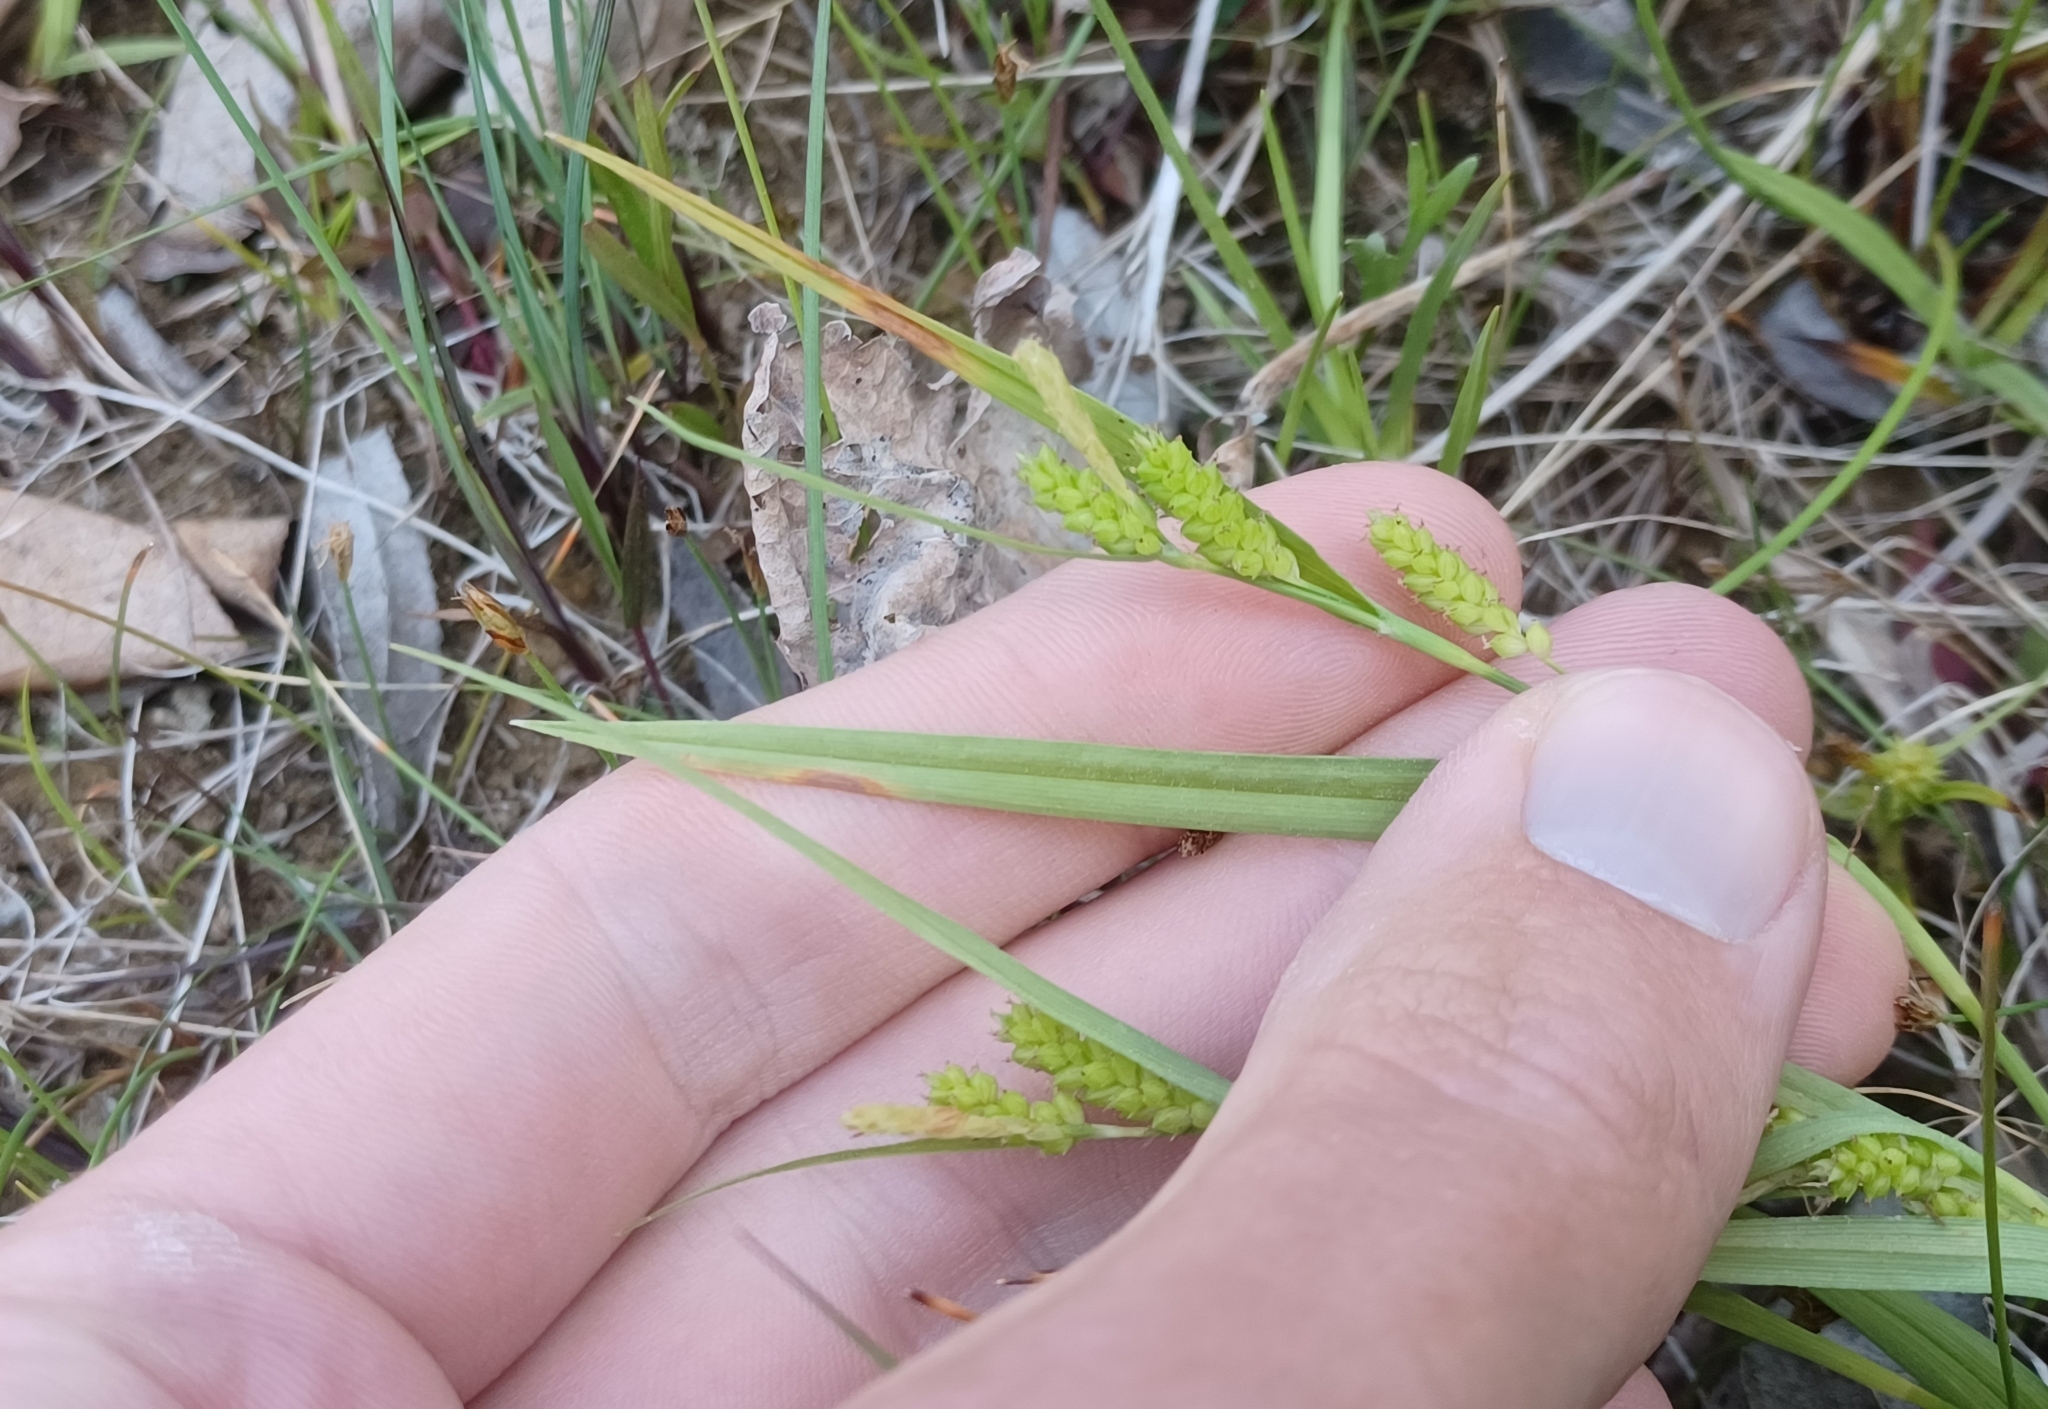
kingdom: Plantae
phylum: Tracheophyta
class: Liliopsida
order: Poales
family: Cyperaceae
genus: Carex
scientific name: Carex granularis
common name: Granular sedge
